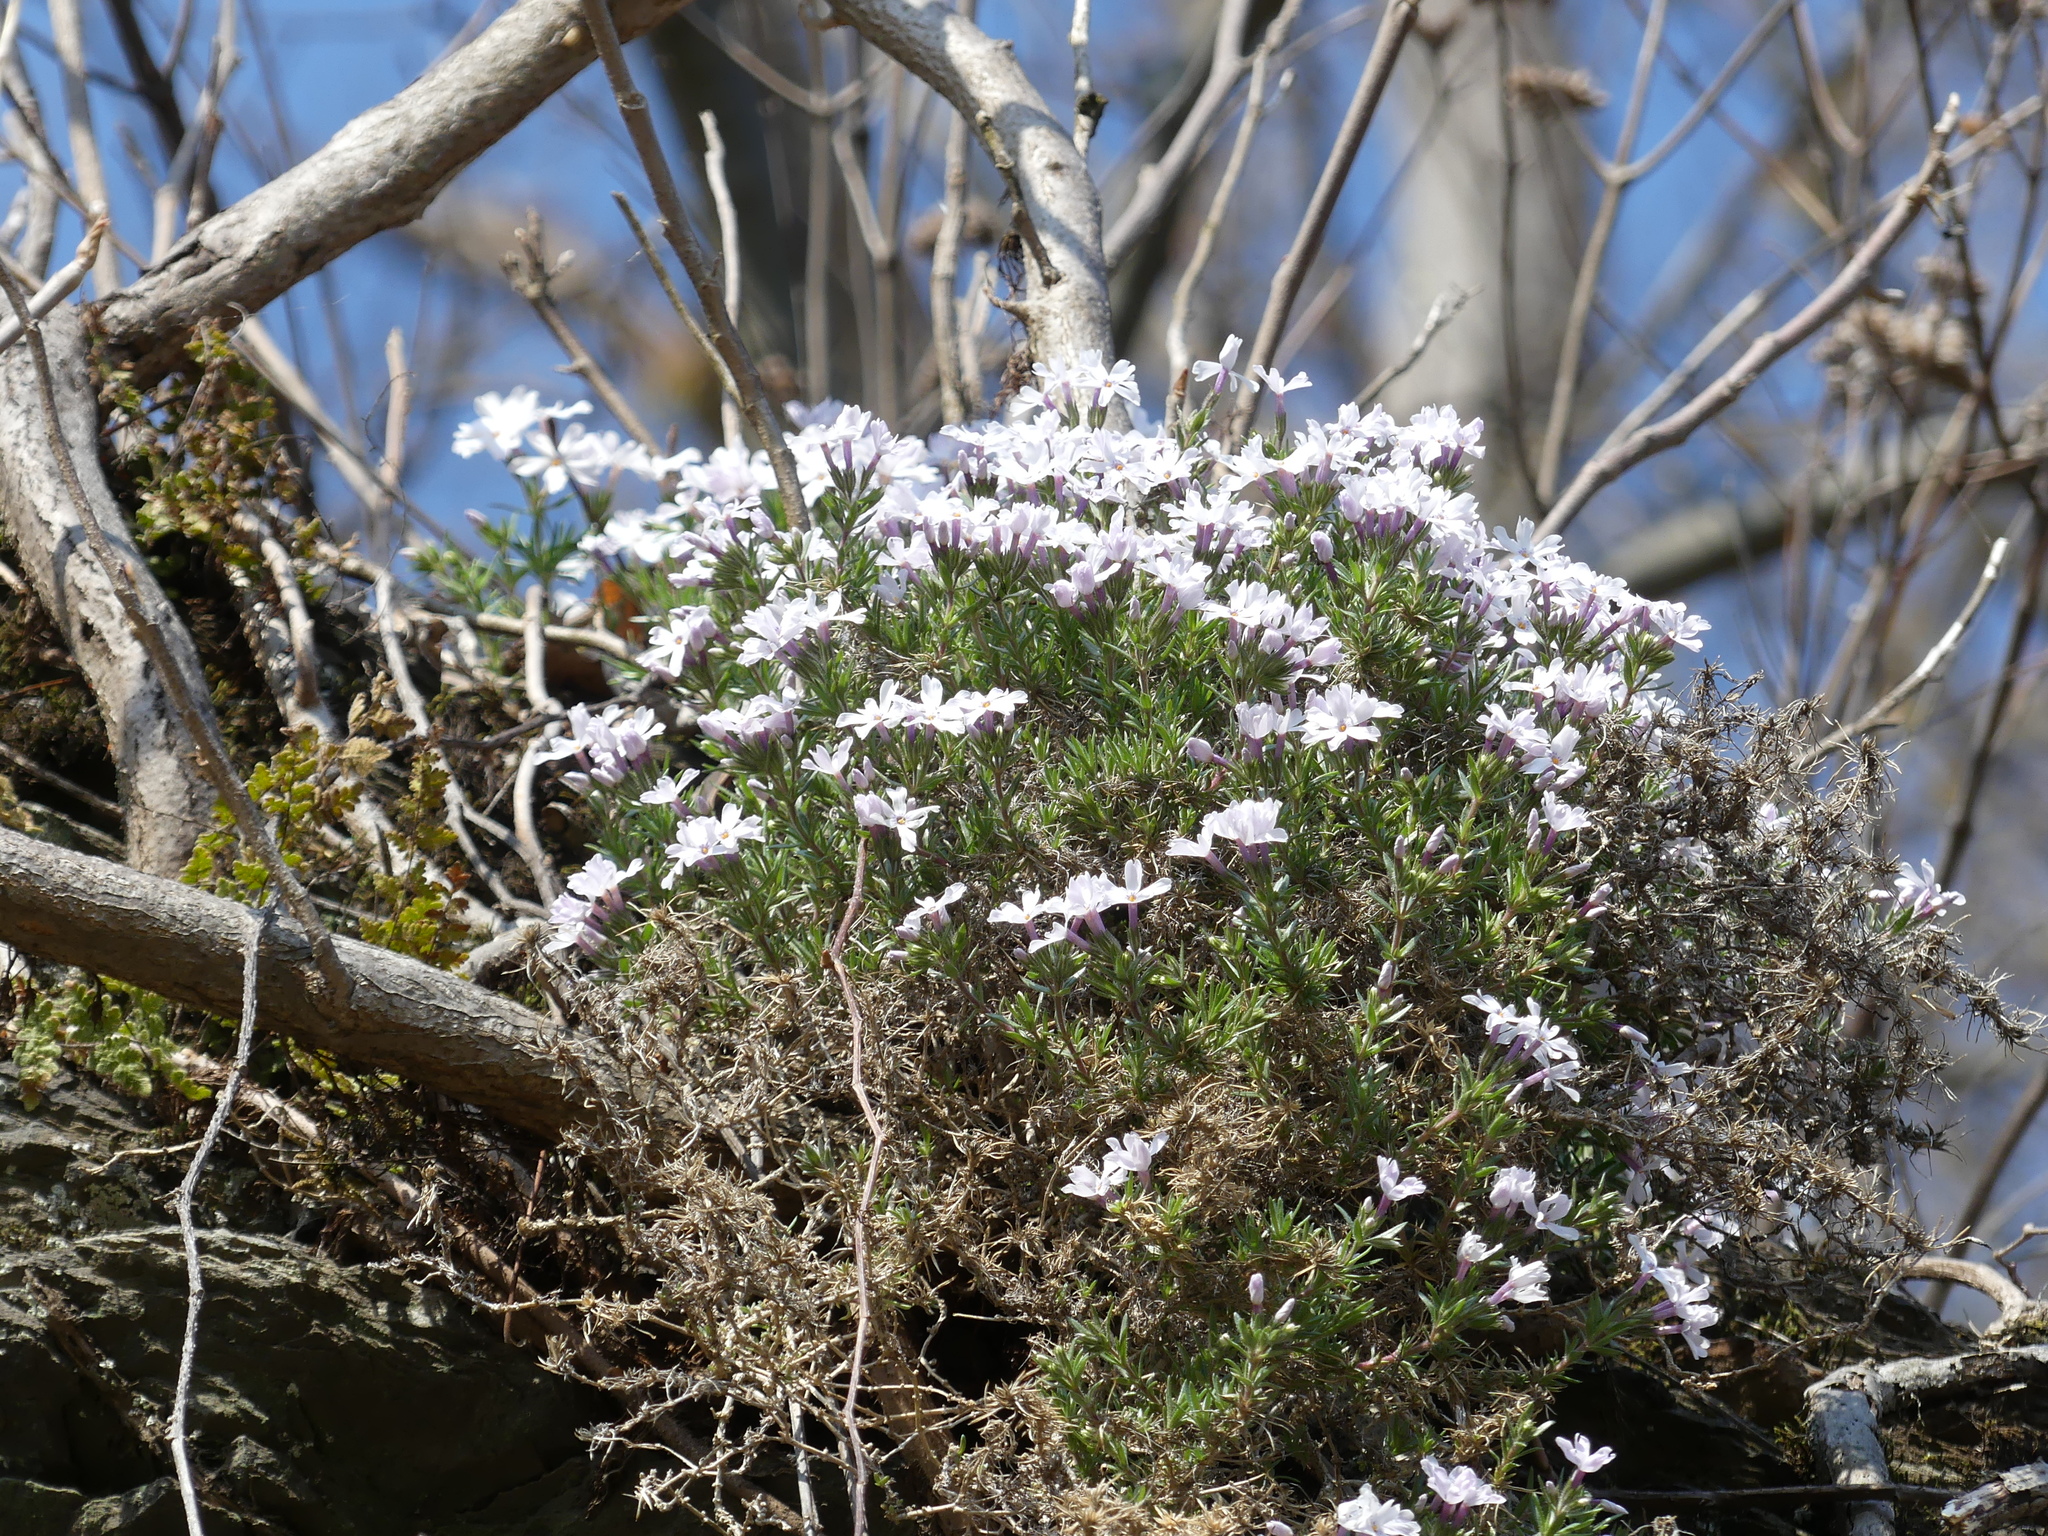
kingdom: Plantae
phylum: Tracheophyta
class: Magnoliopsida
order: Ericales
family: Polemoniaceae
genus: Phlox
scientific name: Phlox subulata
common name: Moss phlox
